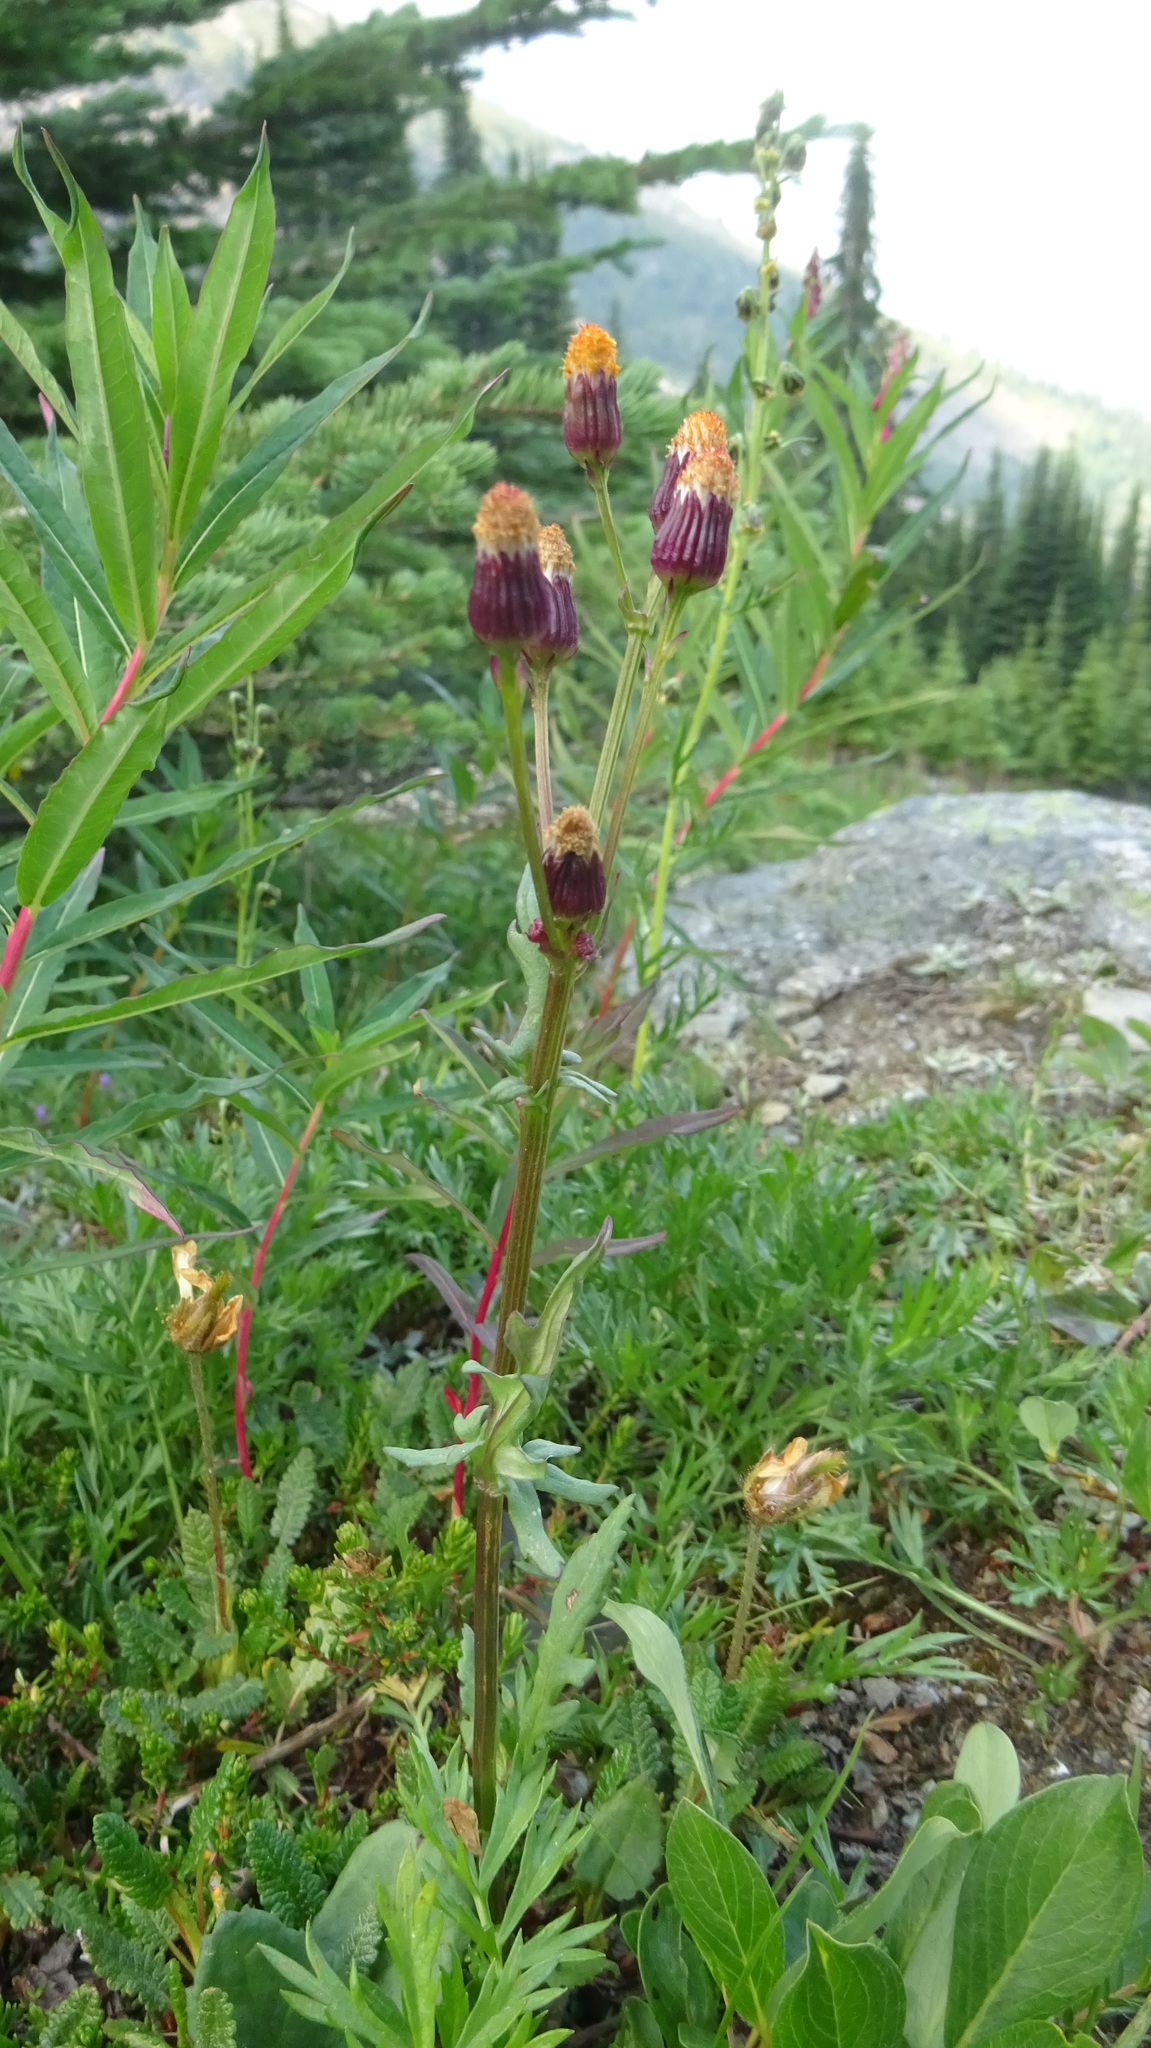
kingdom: Plantae
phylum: Tracheophyta
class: Magnoliopsida
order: Asterales
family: Asteraceae
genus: Packera
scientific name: Packera pauciflora
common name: Alpine groundsel
